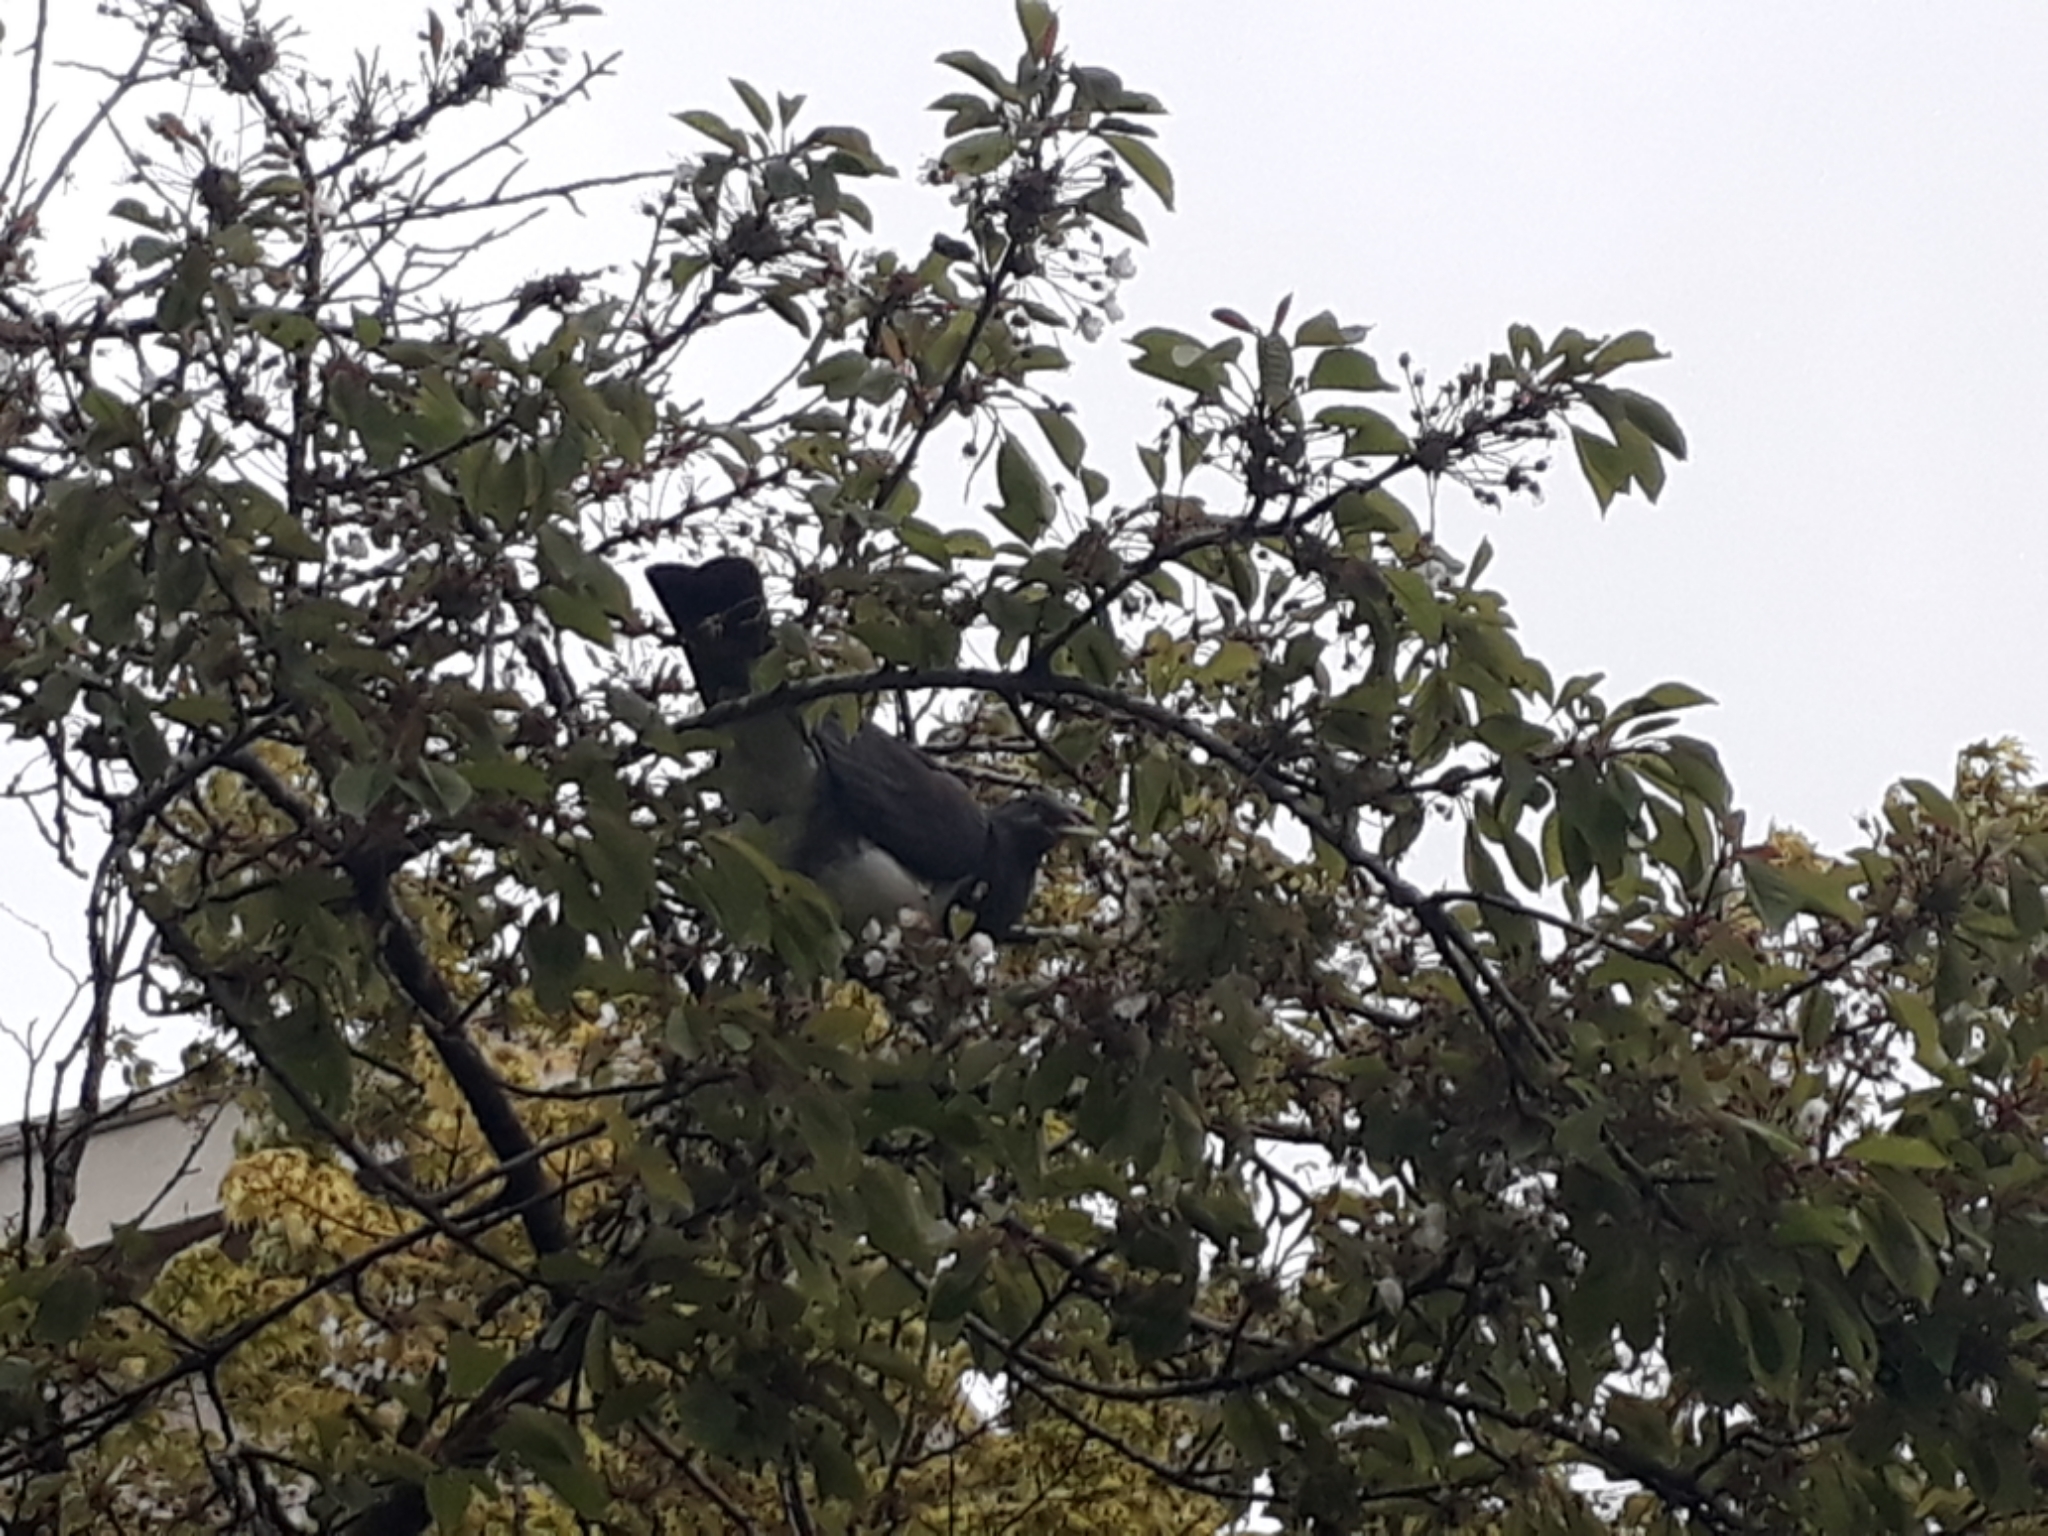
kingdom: Animalia
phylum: Chordata
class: Aves
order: Columbiformes
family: Columbidae
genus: Hemiphaga
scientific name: Hemiphaga novaeseelandiae
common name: New zealand pigeon
